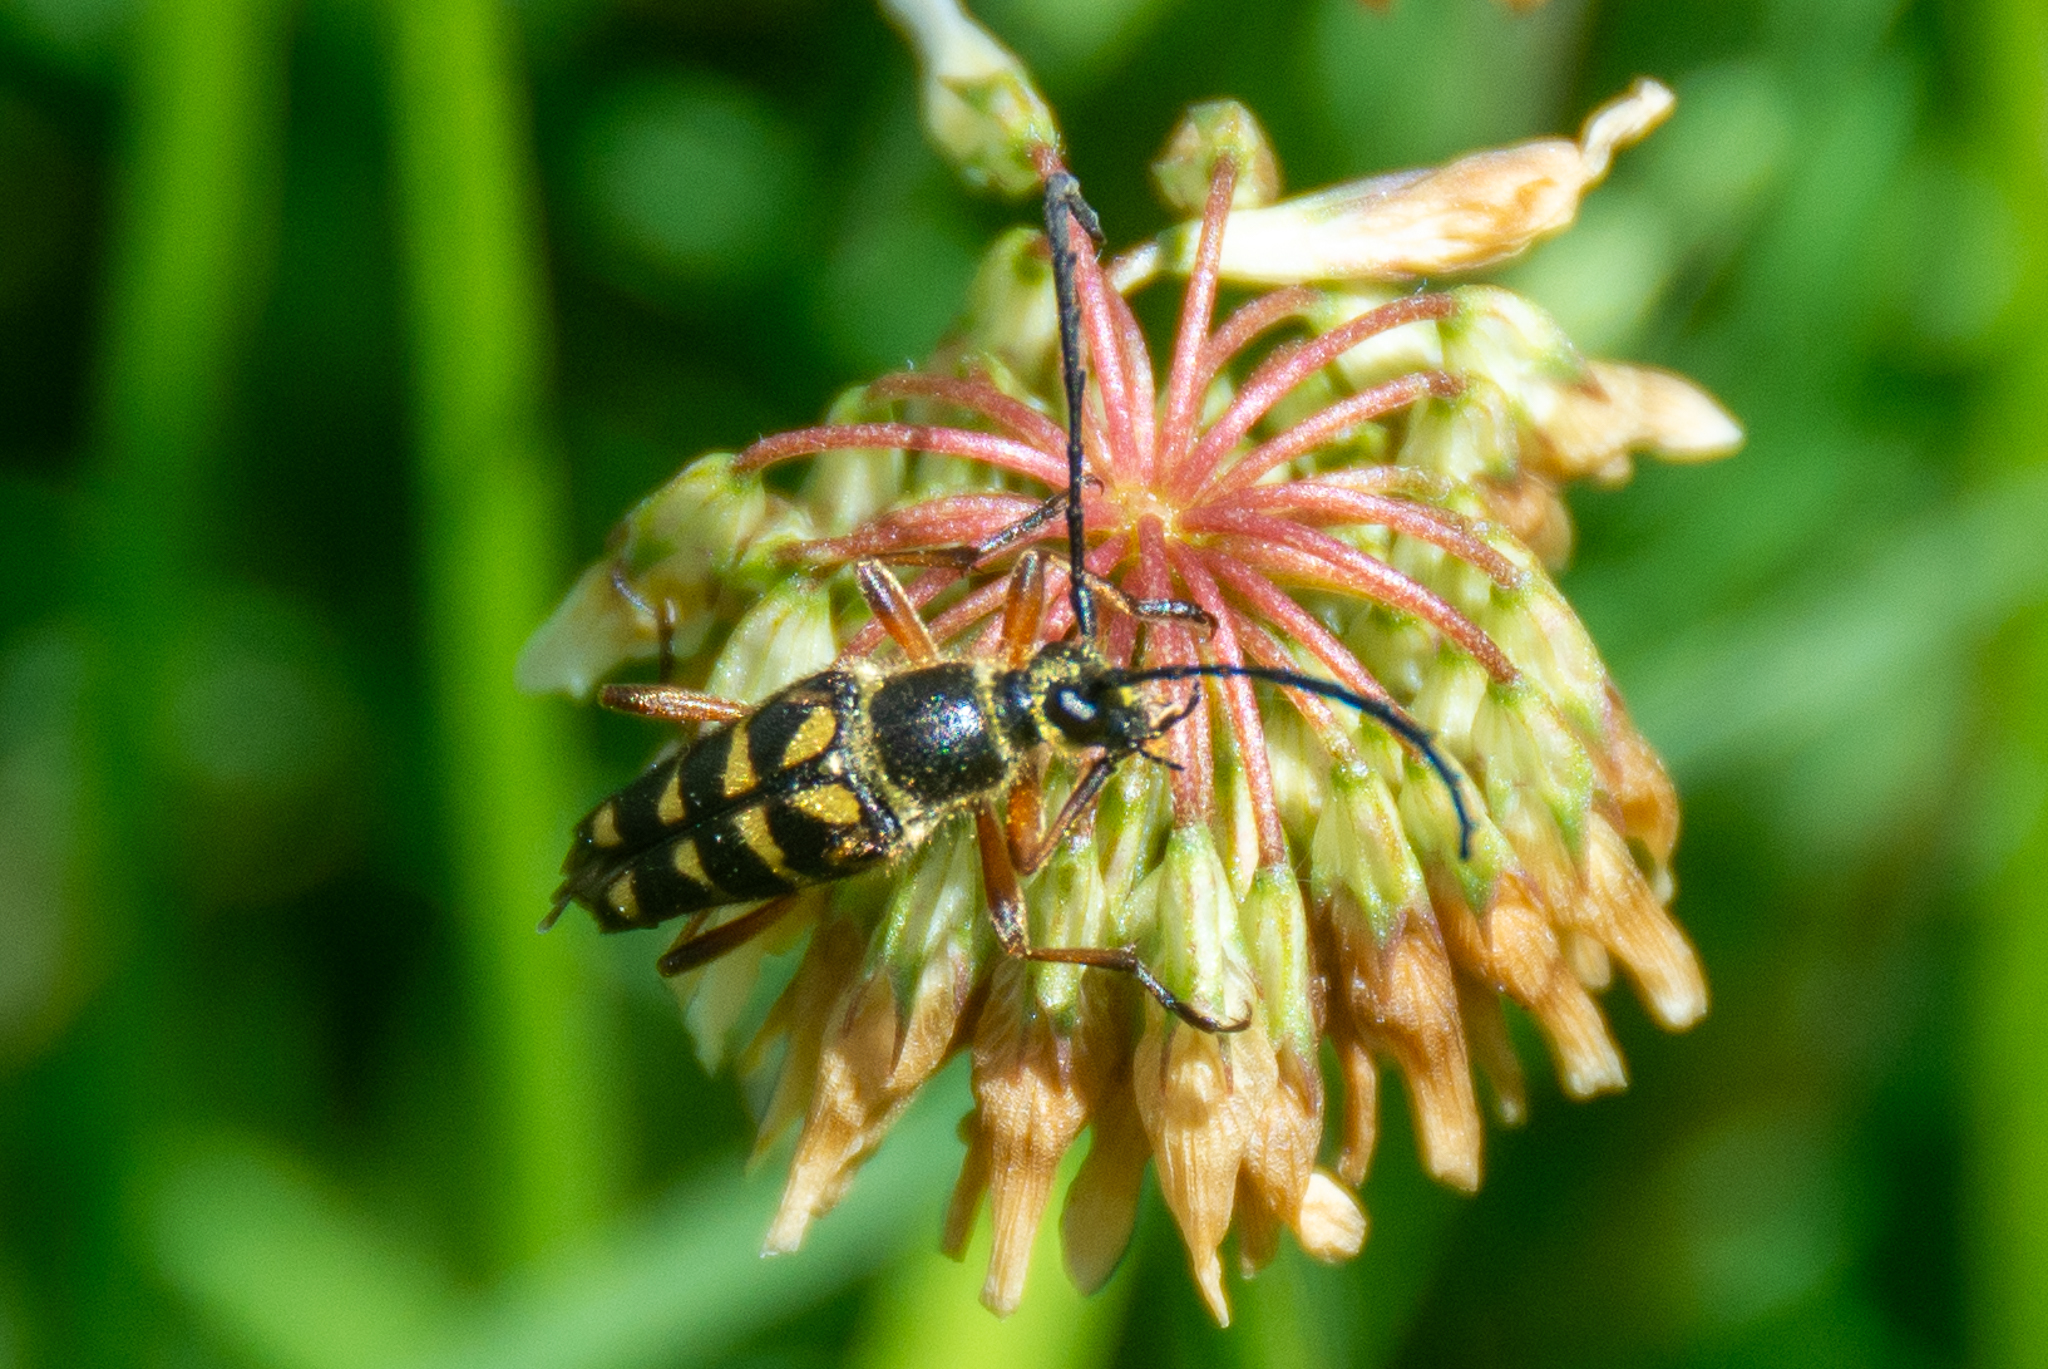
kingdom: Animalia
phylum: Arthropoda
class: Insecta
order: Coleoptera
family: Cerambycidae
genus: Typocerus
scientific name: Typocerus zebra
